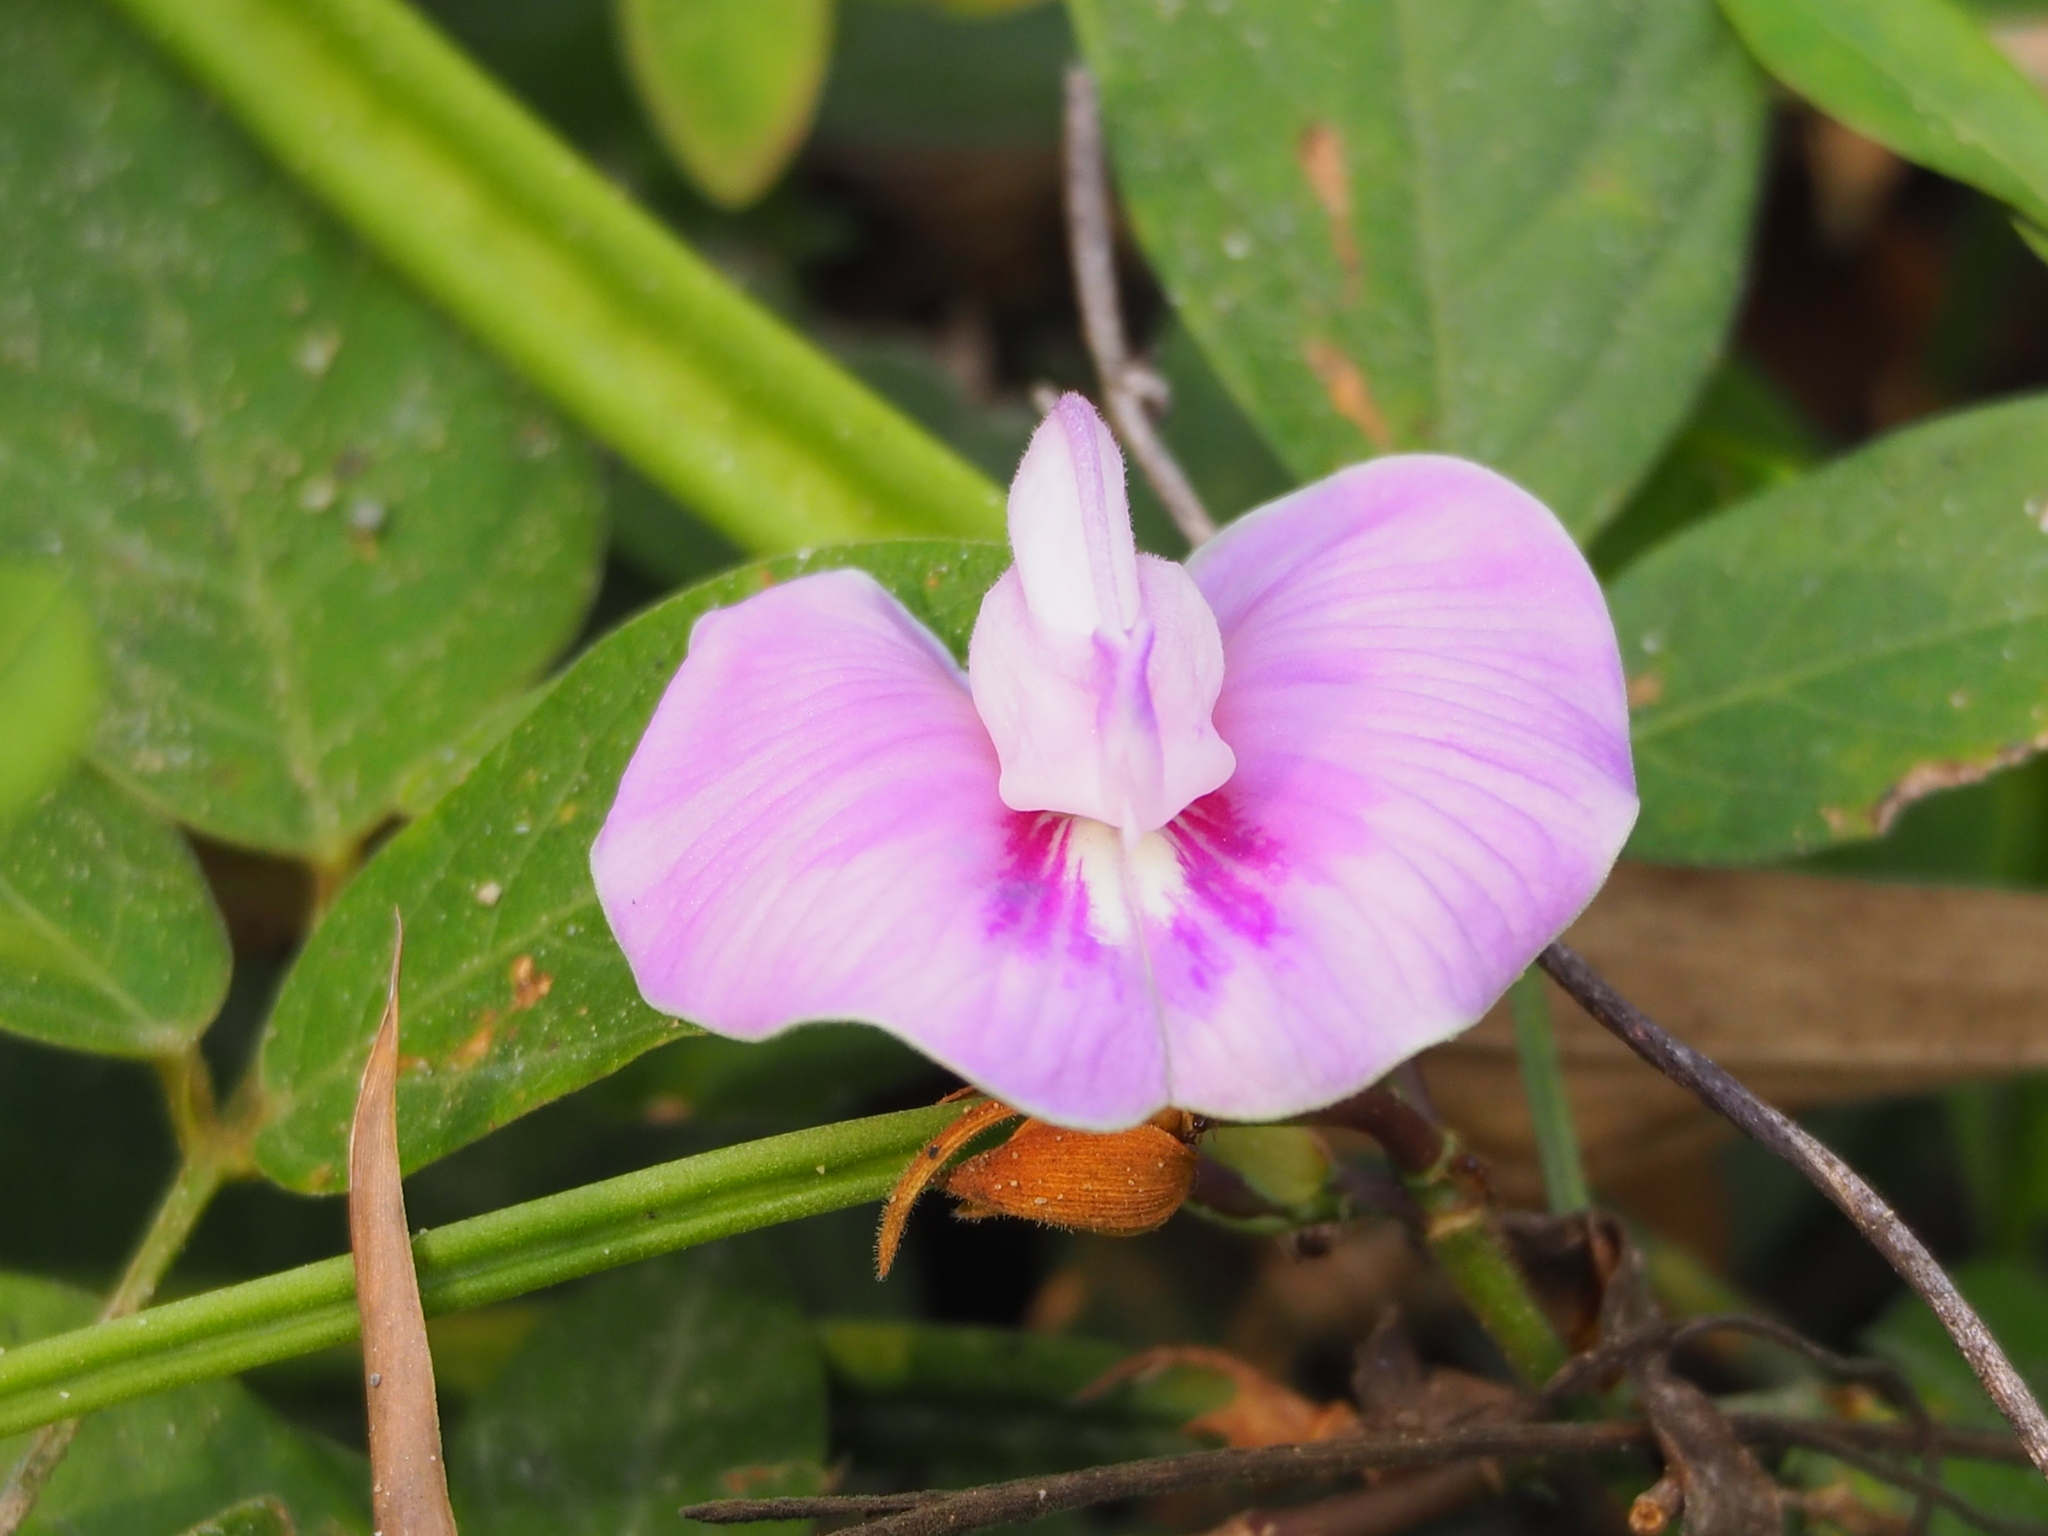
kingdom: Plantae
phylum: Tracheophyta
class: Magnoliopsida
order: Fabales
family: Fabaceae
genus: Centrosema
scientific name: Centrosema pubescens
